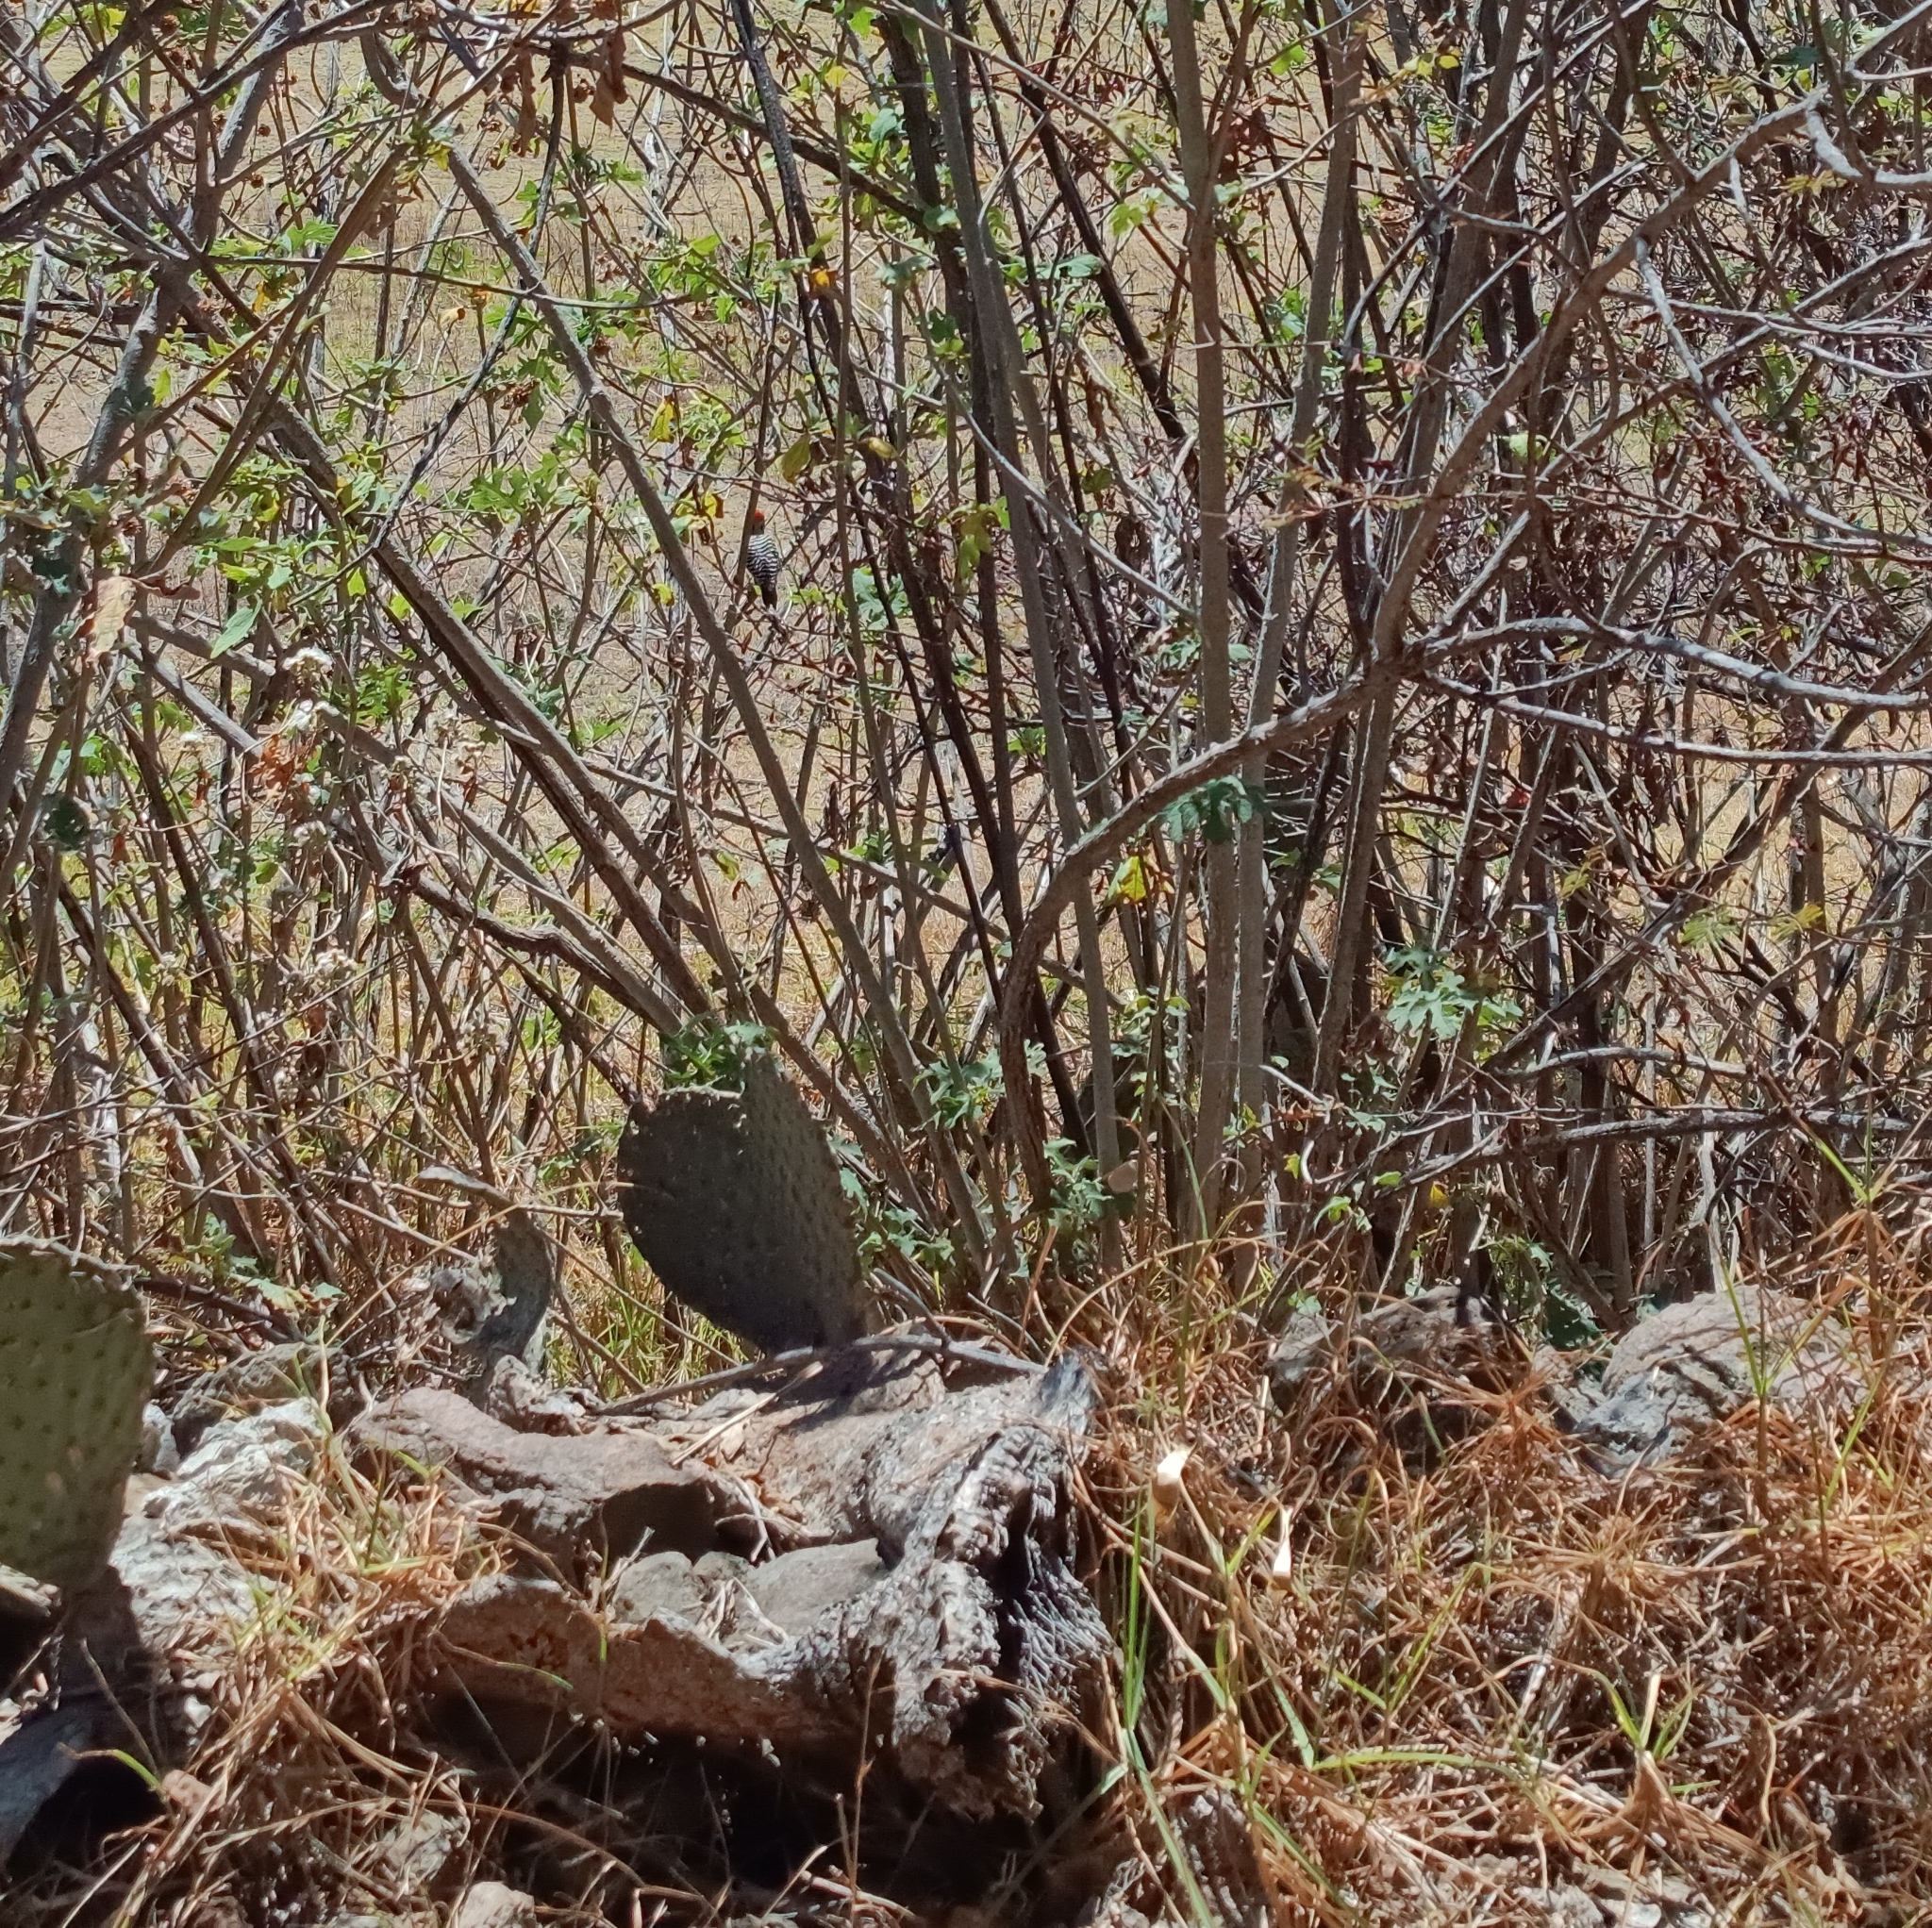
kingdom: Animalia
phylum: Chordata
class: Aves
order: Piciformes
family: Picidae
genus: Dryobates
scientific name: Dryobates scalaris
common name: Ladder-backed woodpecker
